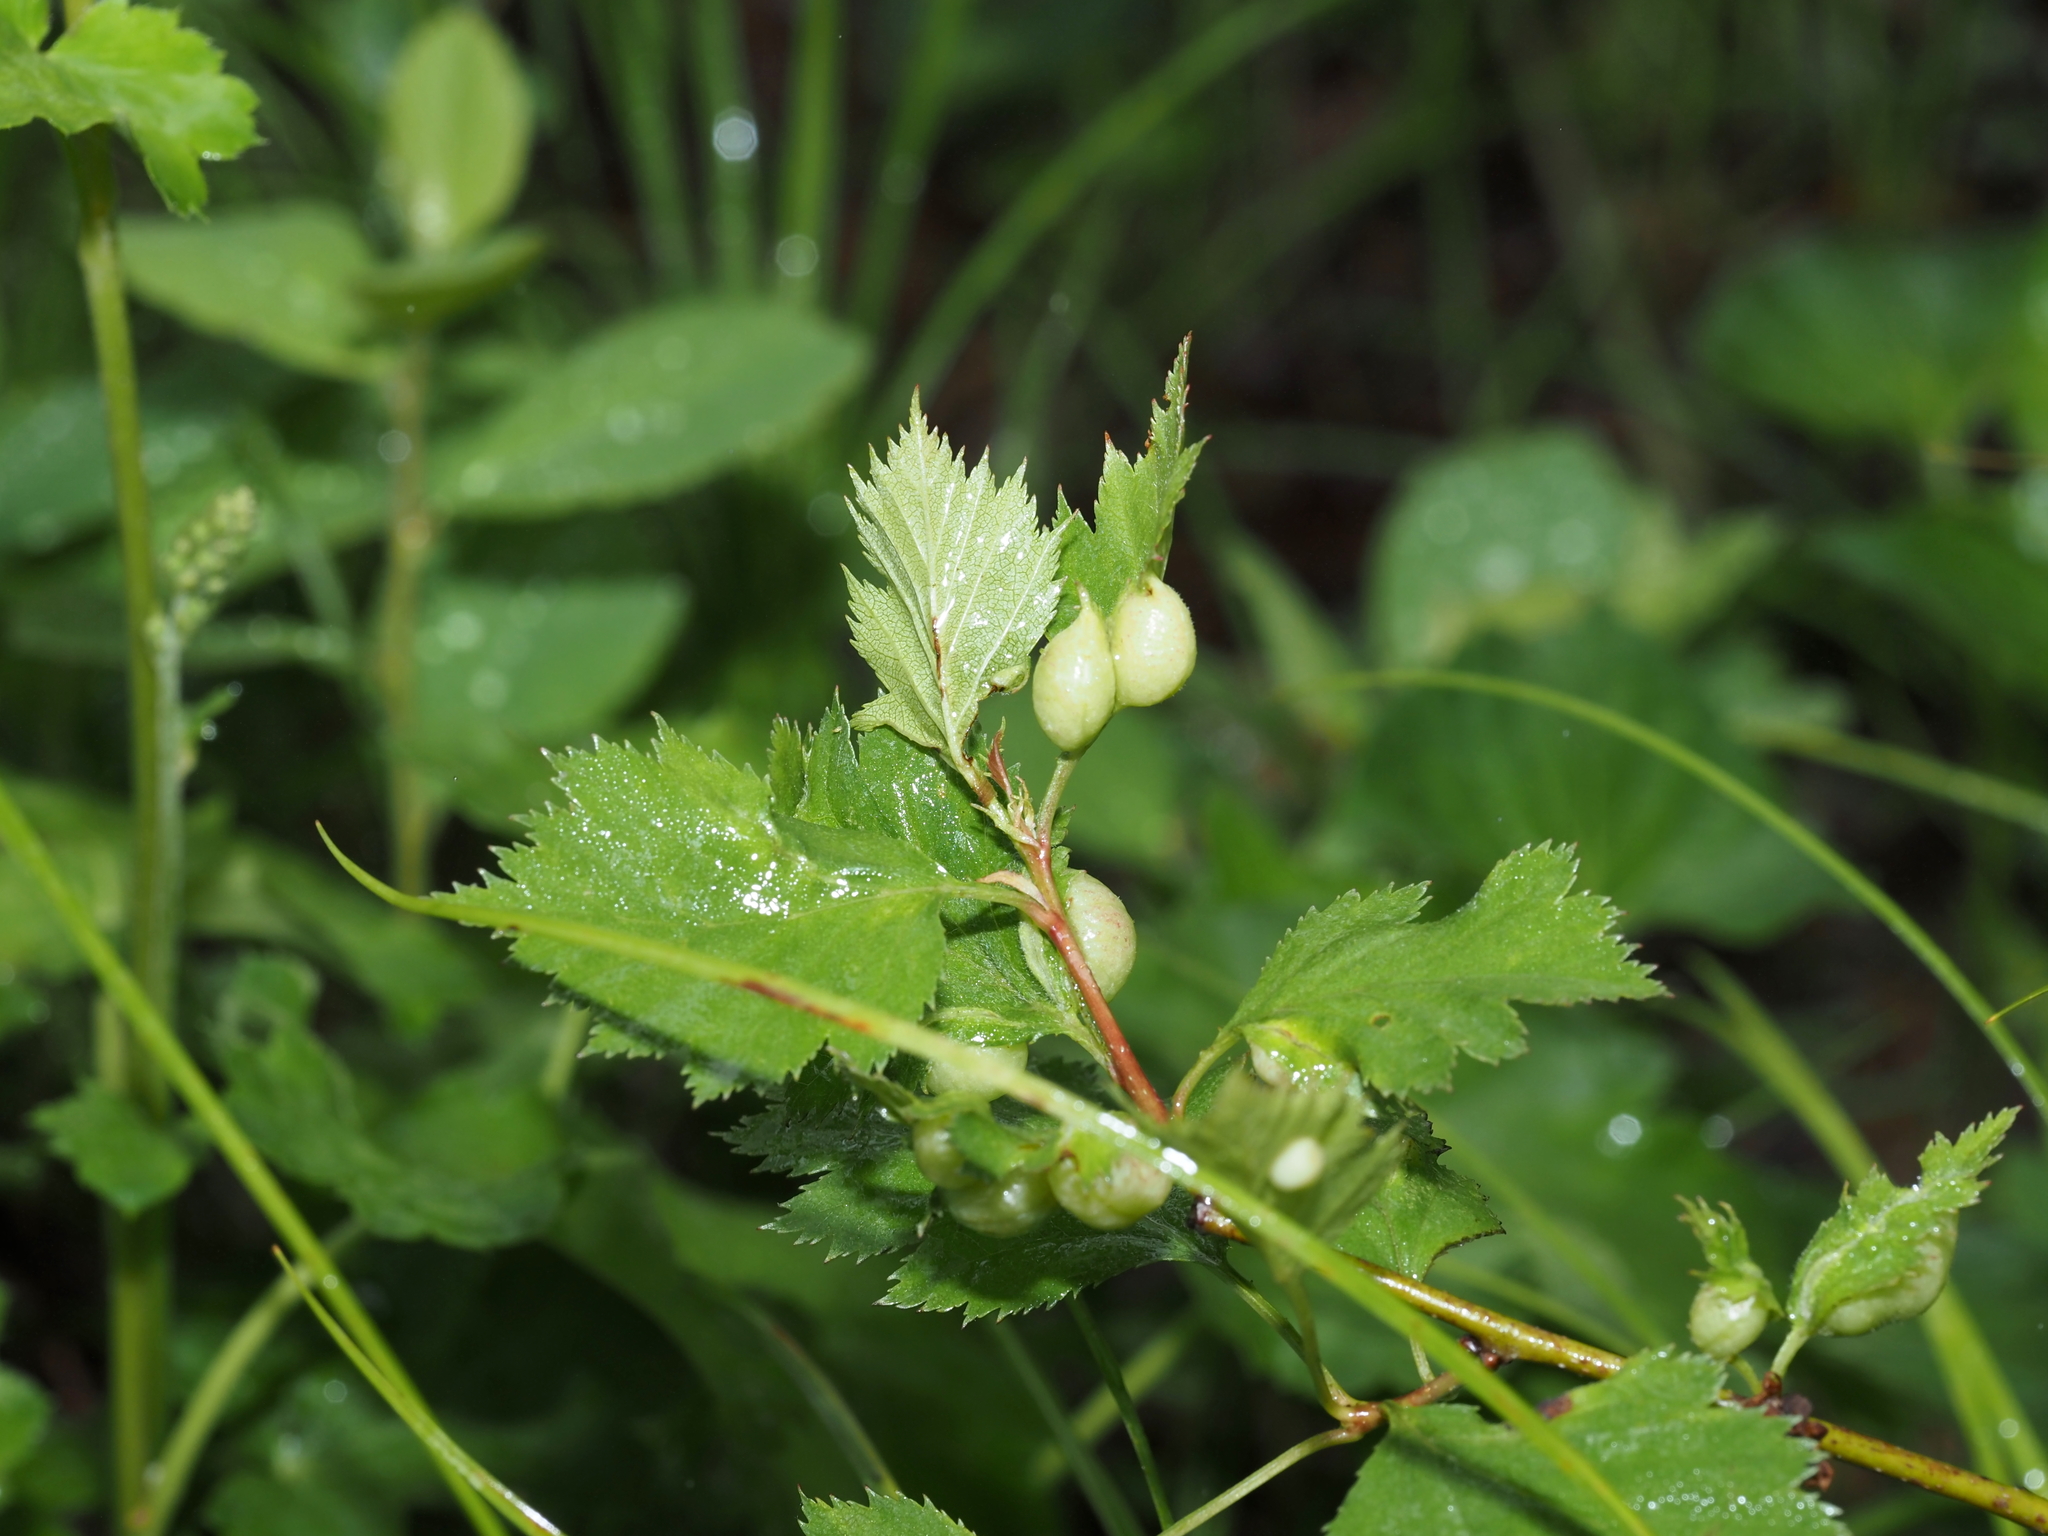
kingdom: Animalia
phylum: Arthropoda
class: Insecta
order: Diptera
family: Cecidomyiidae
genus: Blaesodiplosis
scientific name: Blaesodiplosis venae
